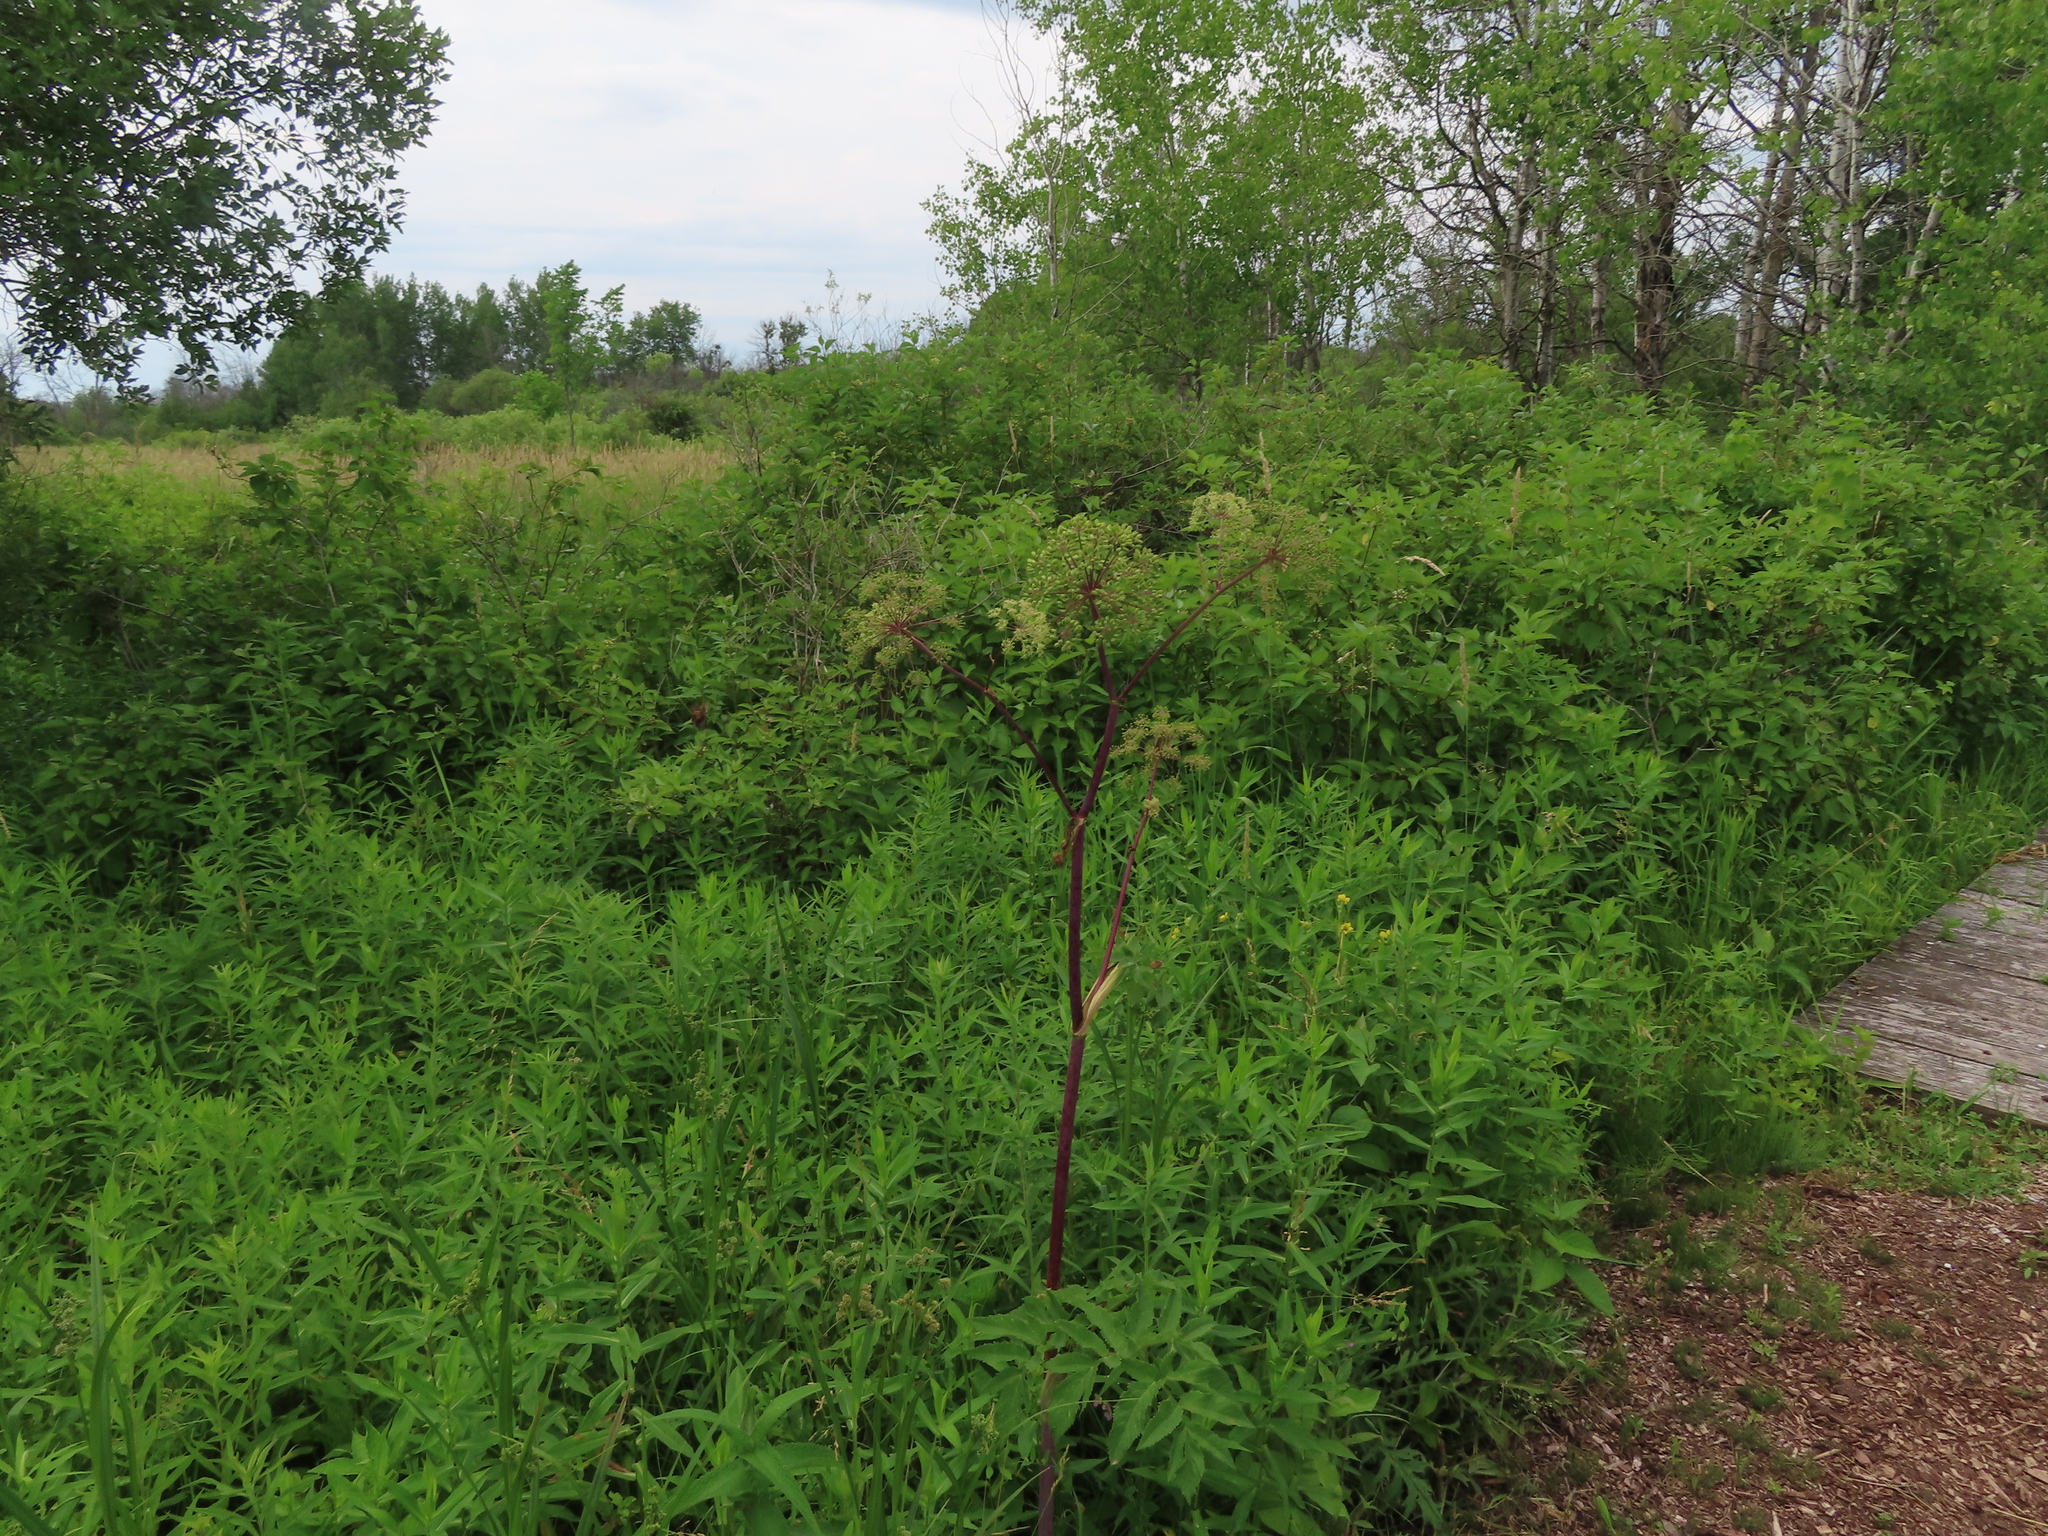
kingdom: Plantae
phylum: Tracheophyta
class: Magnoliopsida
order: Apiales
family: Apiaceae
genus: Angelica
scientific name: Angelica atropurpurea
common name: Great angelica
